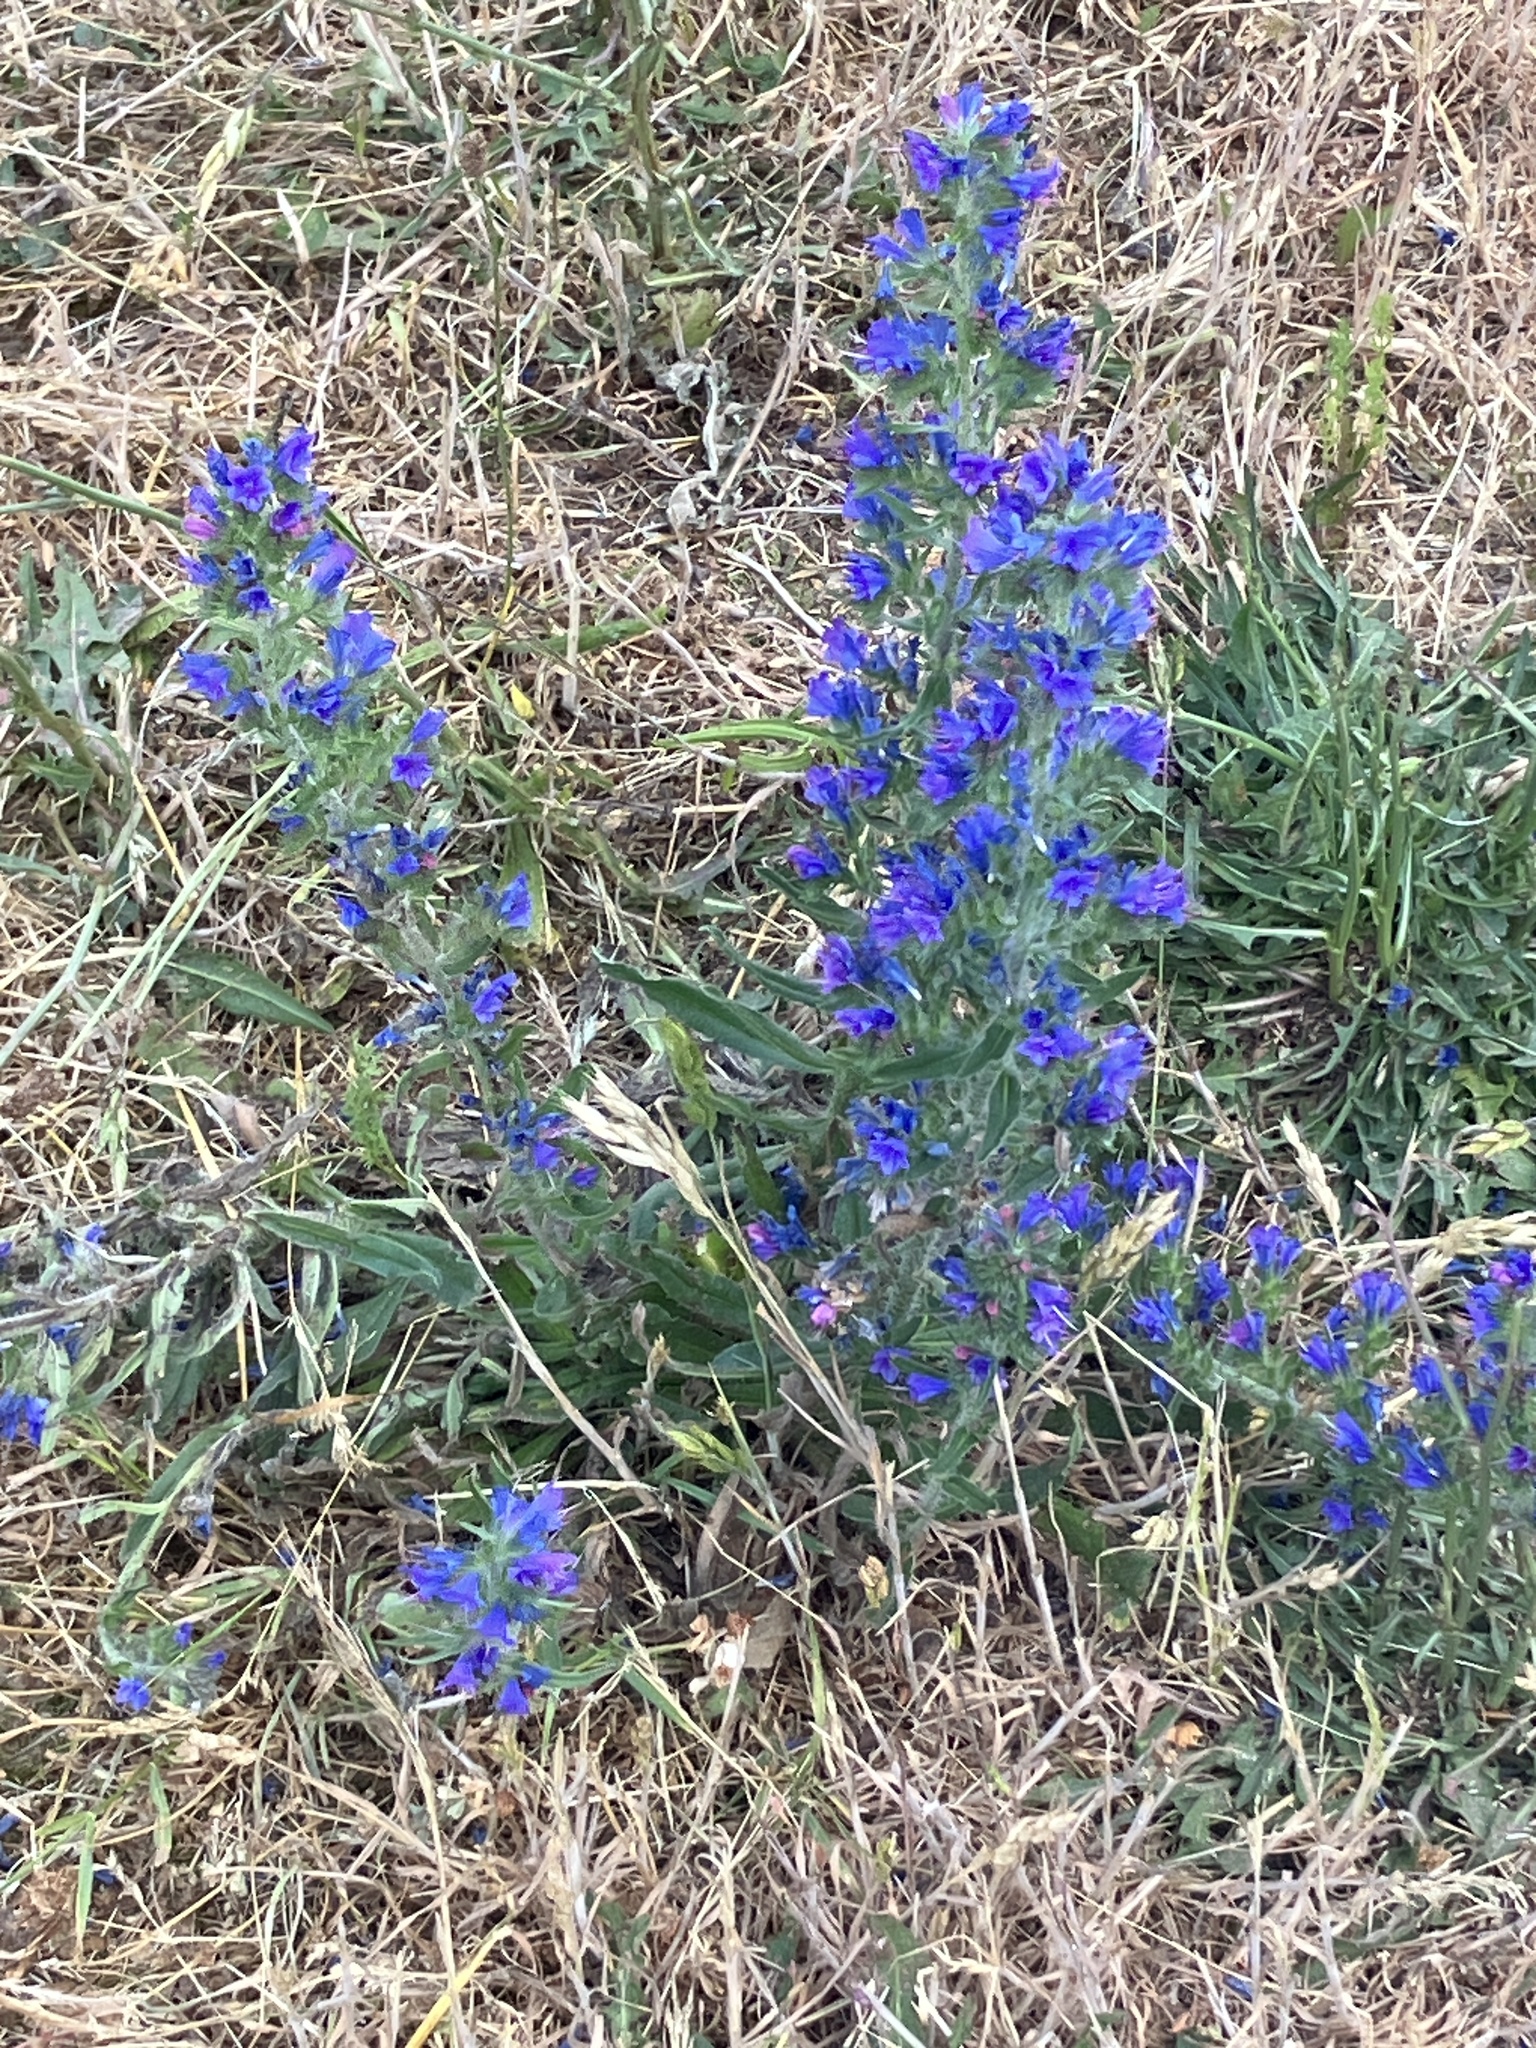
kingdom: Plantae
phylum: Tracheophyta
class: Magnoliopsida
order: Boraginales
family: Boraginaceae
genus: Echium
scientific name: Echium vulgare
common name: Common viper's bugloss
